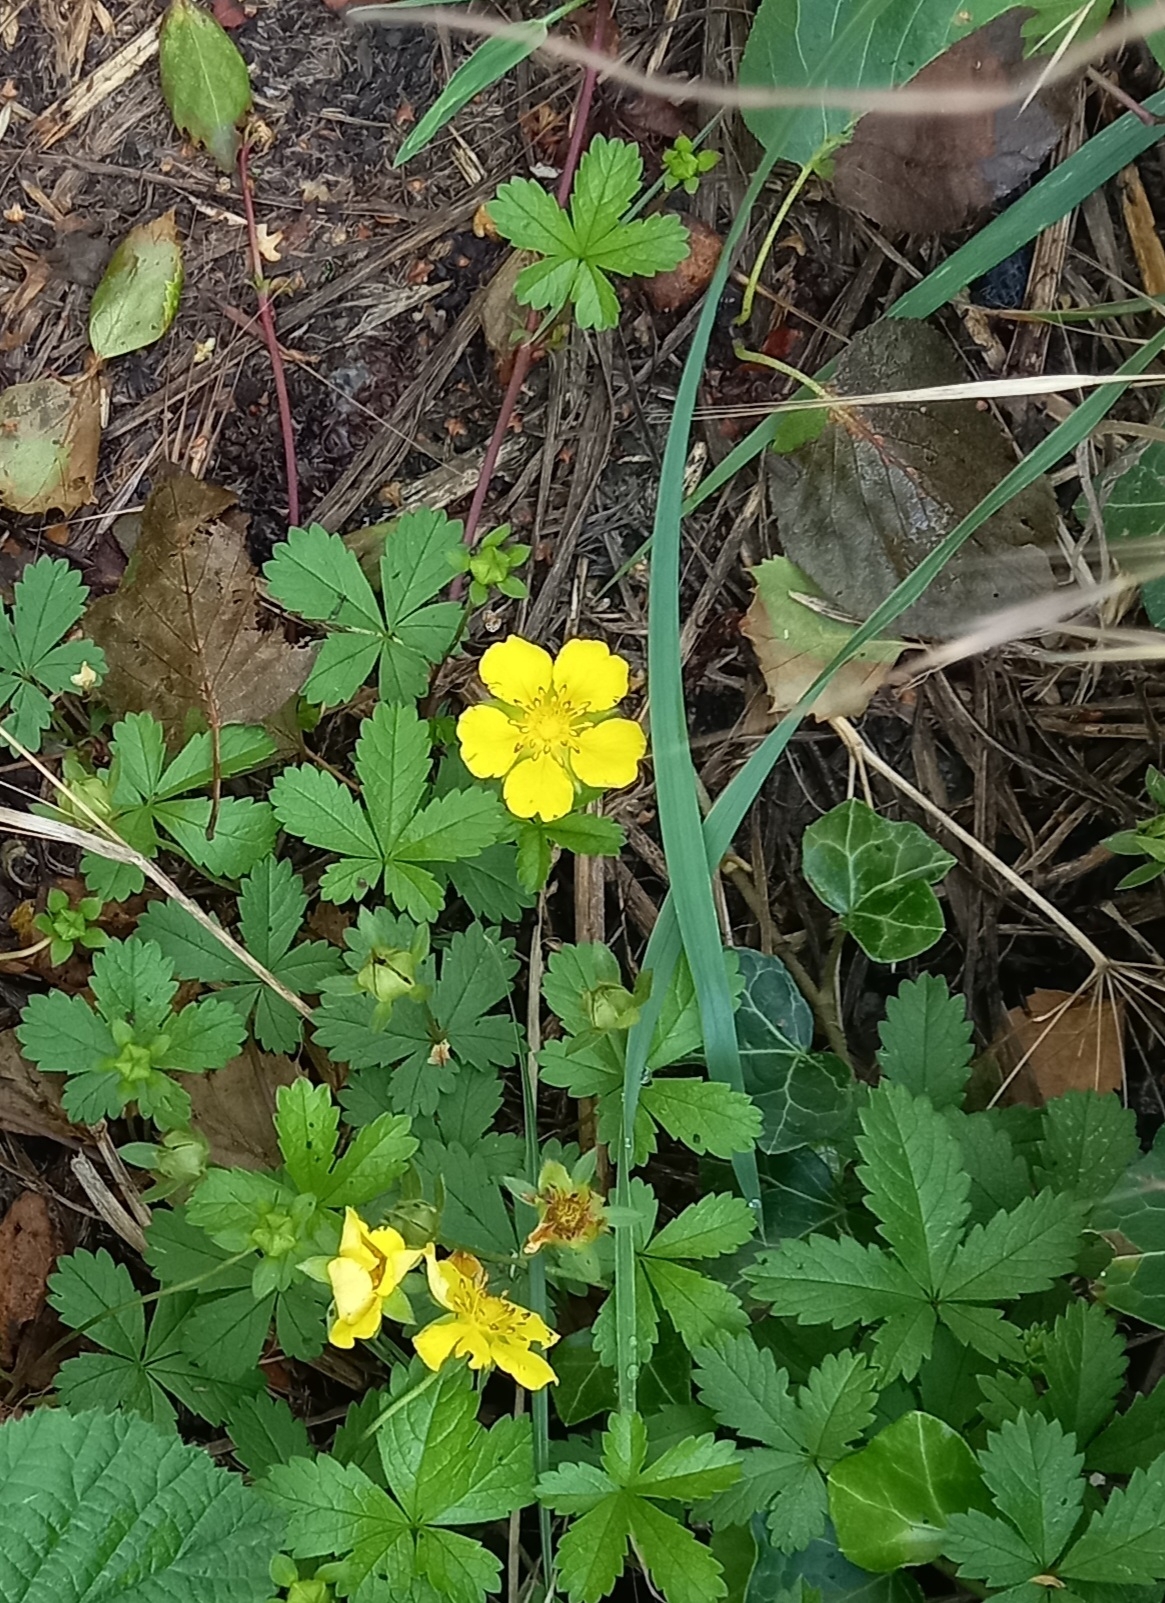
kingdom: Plantae
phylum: Tracheophyta
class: Magnoliopsida
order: Rosales
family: Rosaceae
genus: Potentilla
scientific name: Potentilla reptans
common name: Creeping cinquefoil
